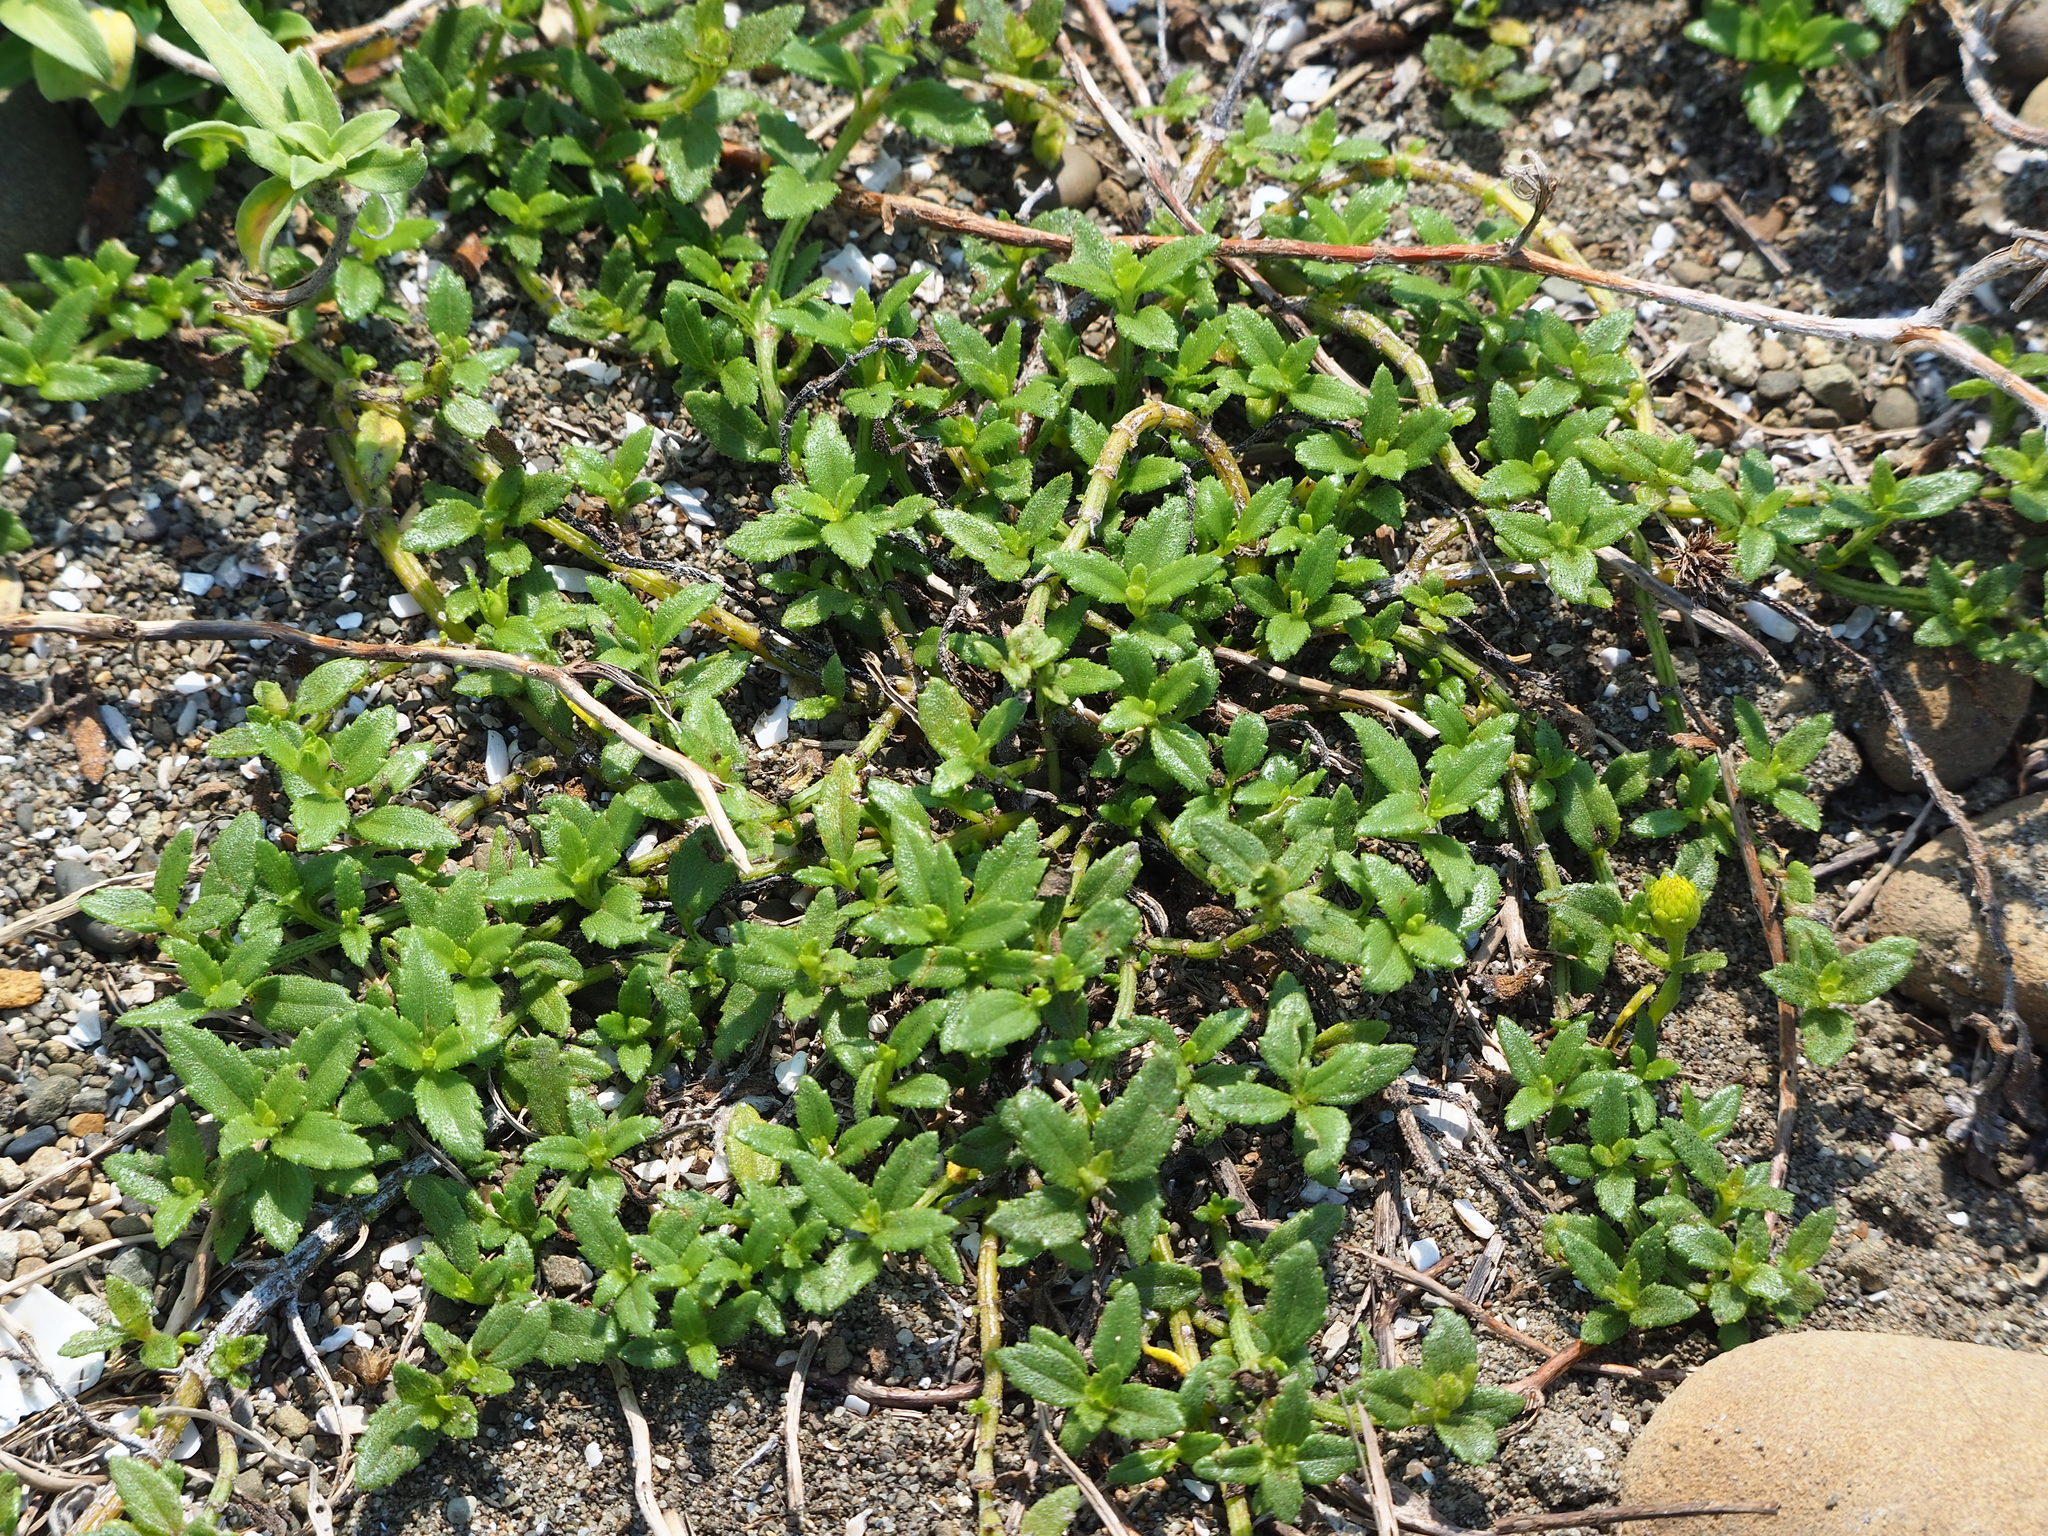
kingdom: Plantae
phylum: Tracheophyta
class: Magnoliopsida
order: Asterales
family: Asteraceae
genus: Melanthera
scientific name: Melanthera prostrata
